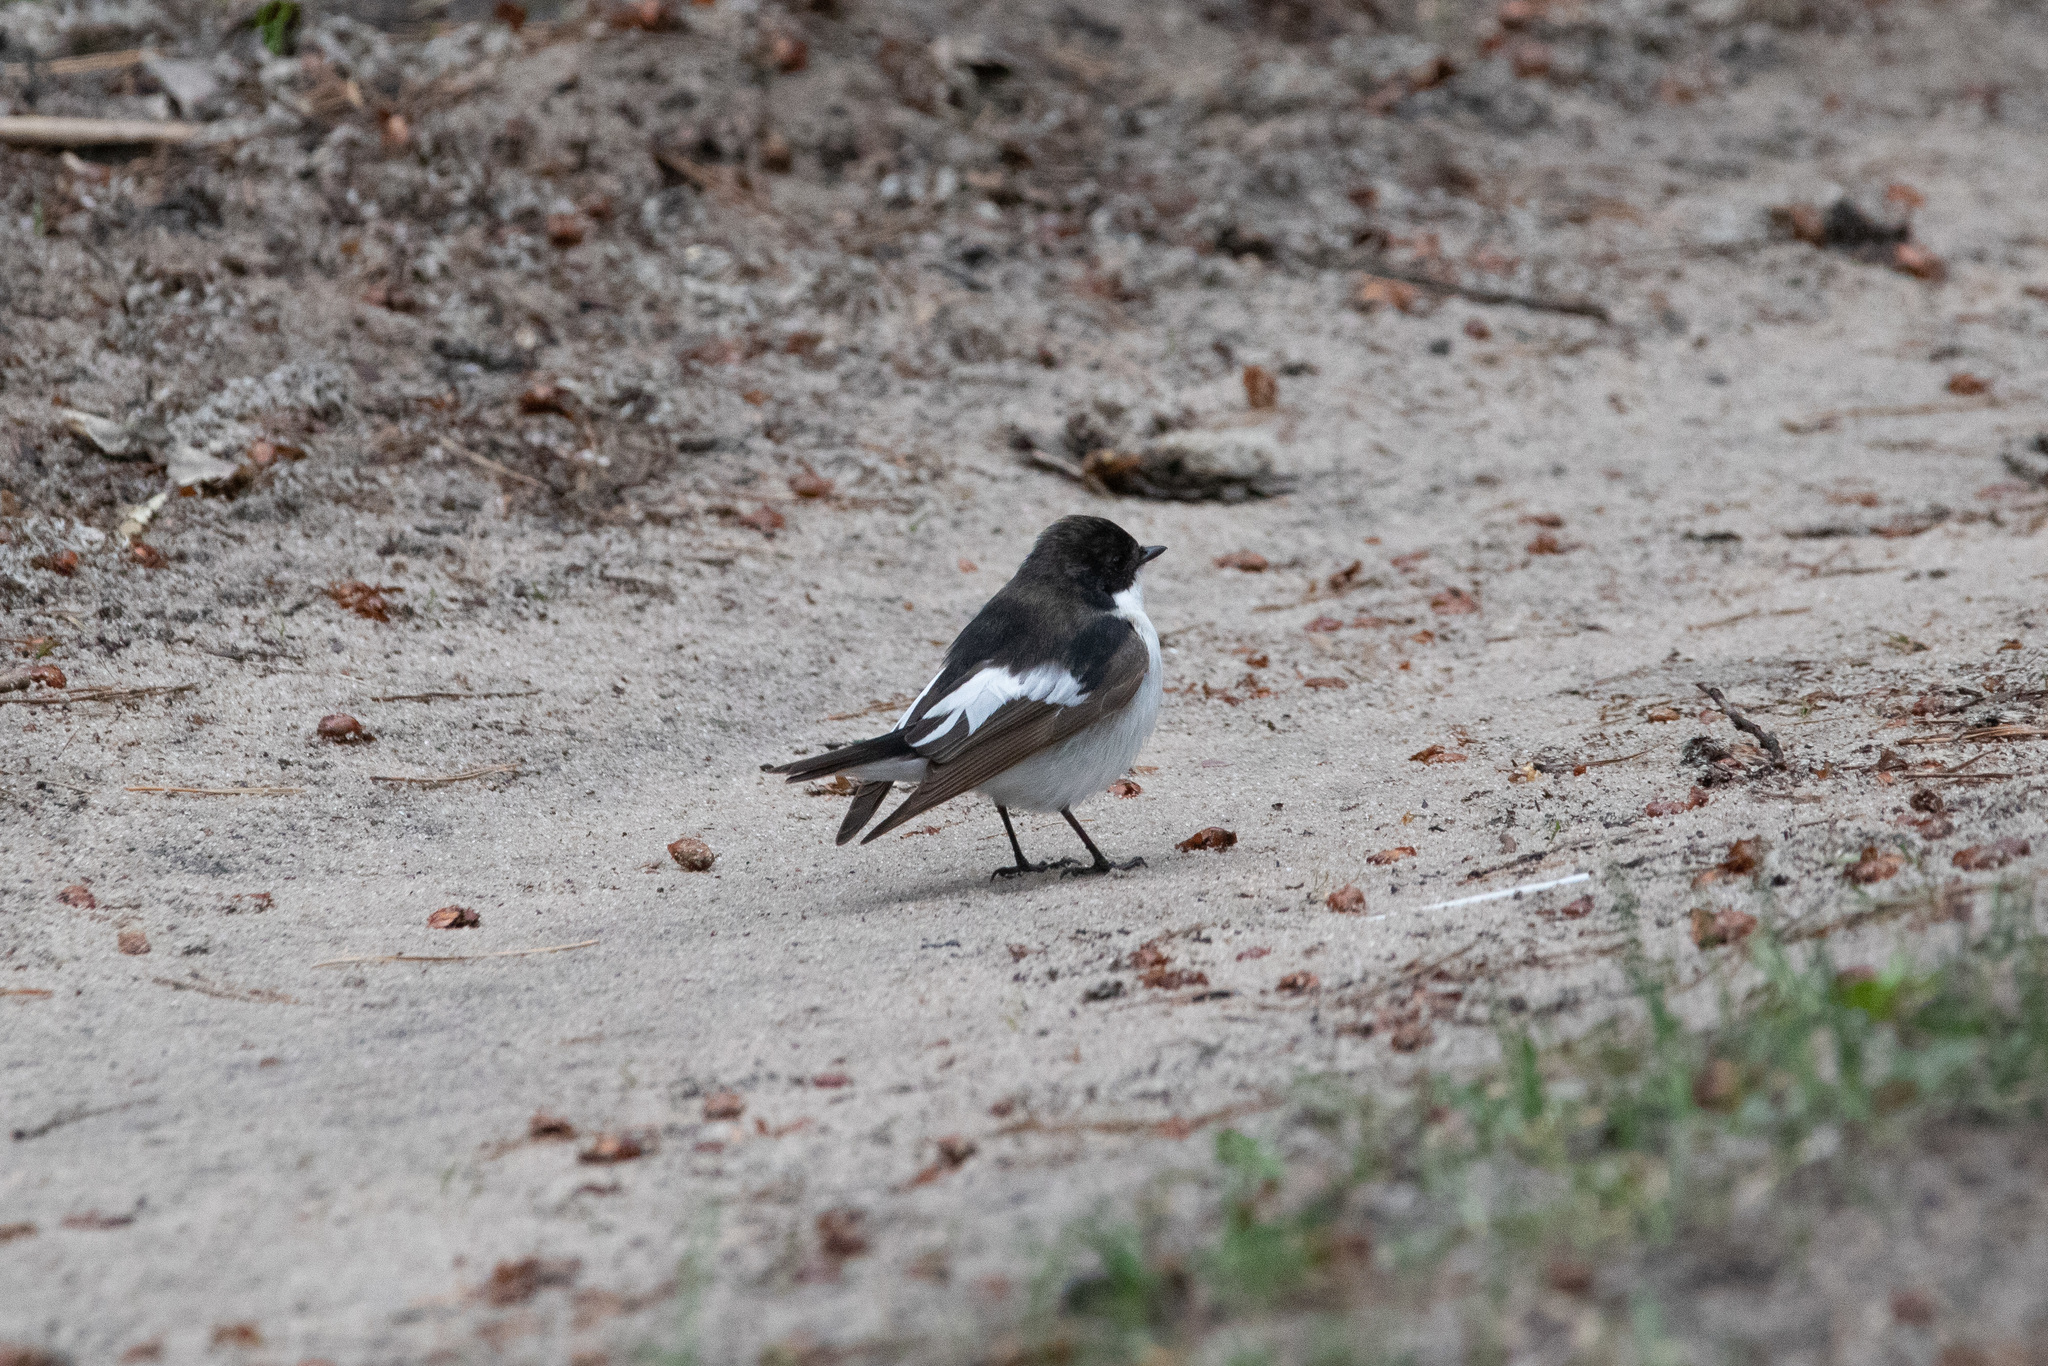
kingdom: Animalia
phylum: Chordata
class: Aves
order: Passeriformes
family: Muscicapidae
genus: Ficedula
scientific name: Ficedula hypoleuca
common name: European pied flycatcher
